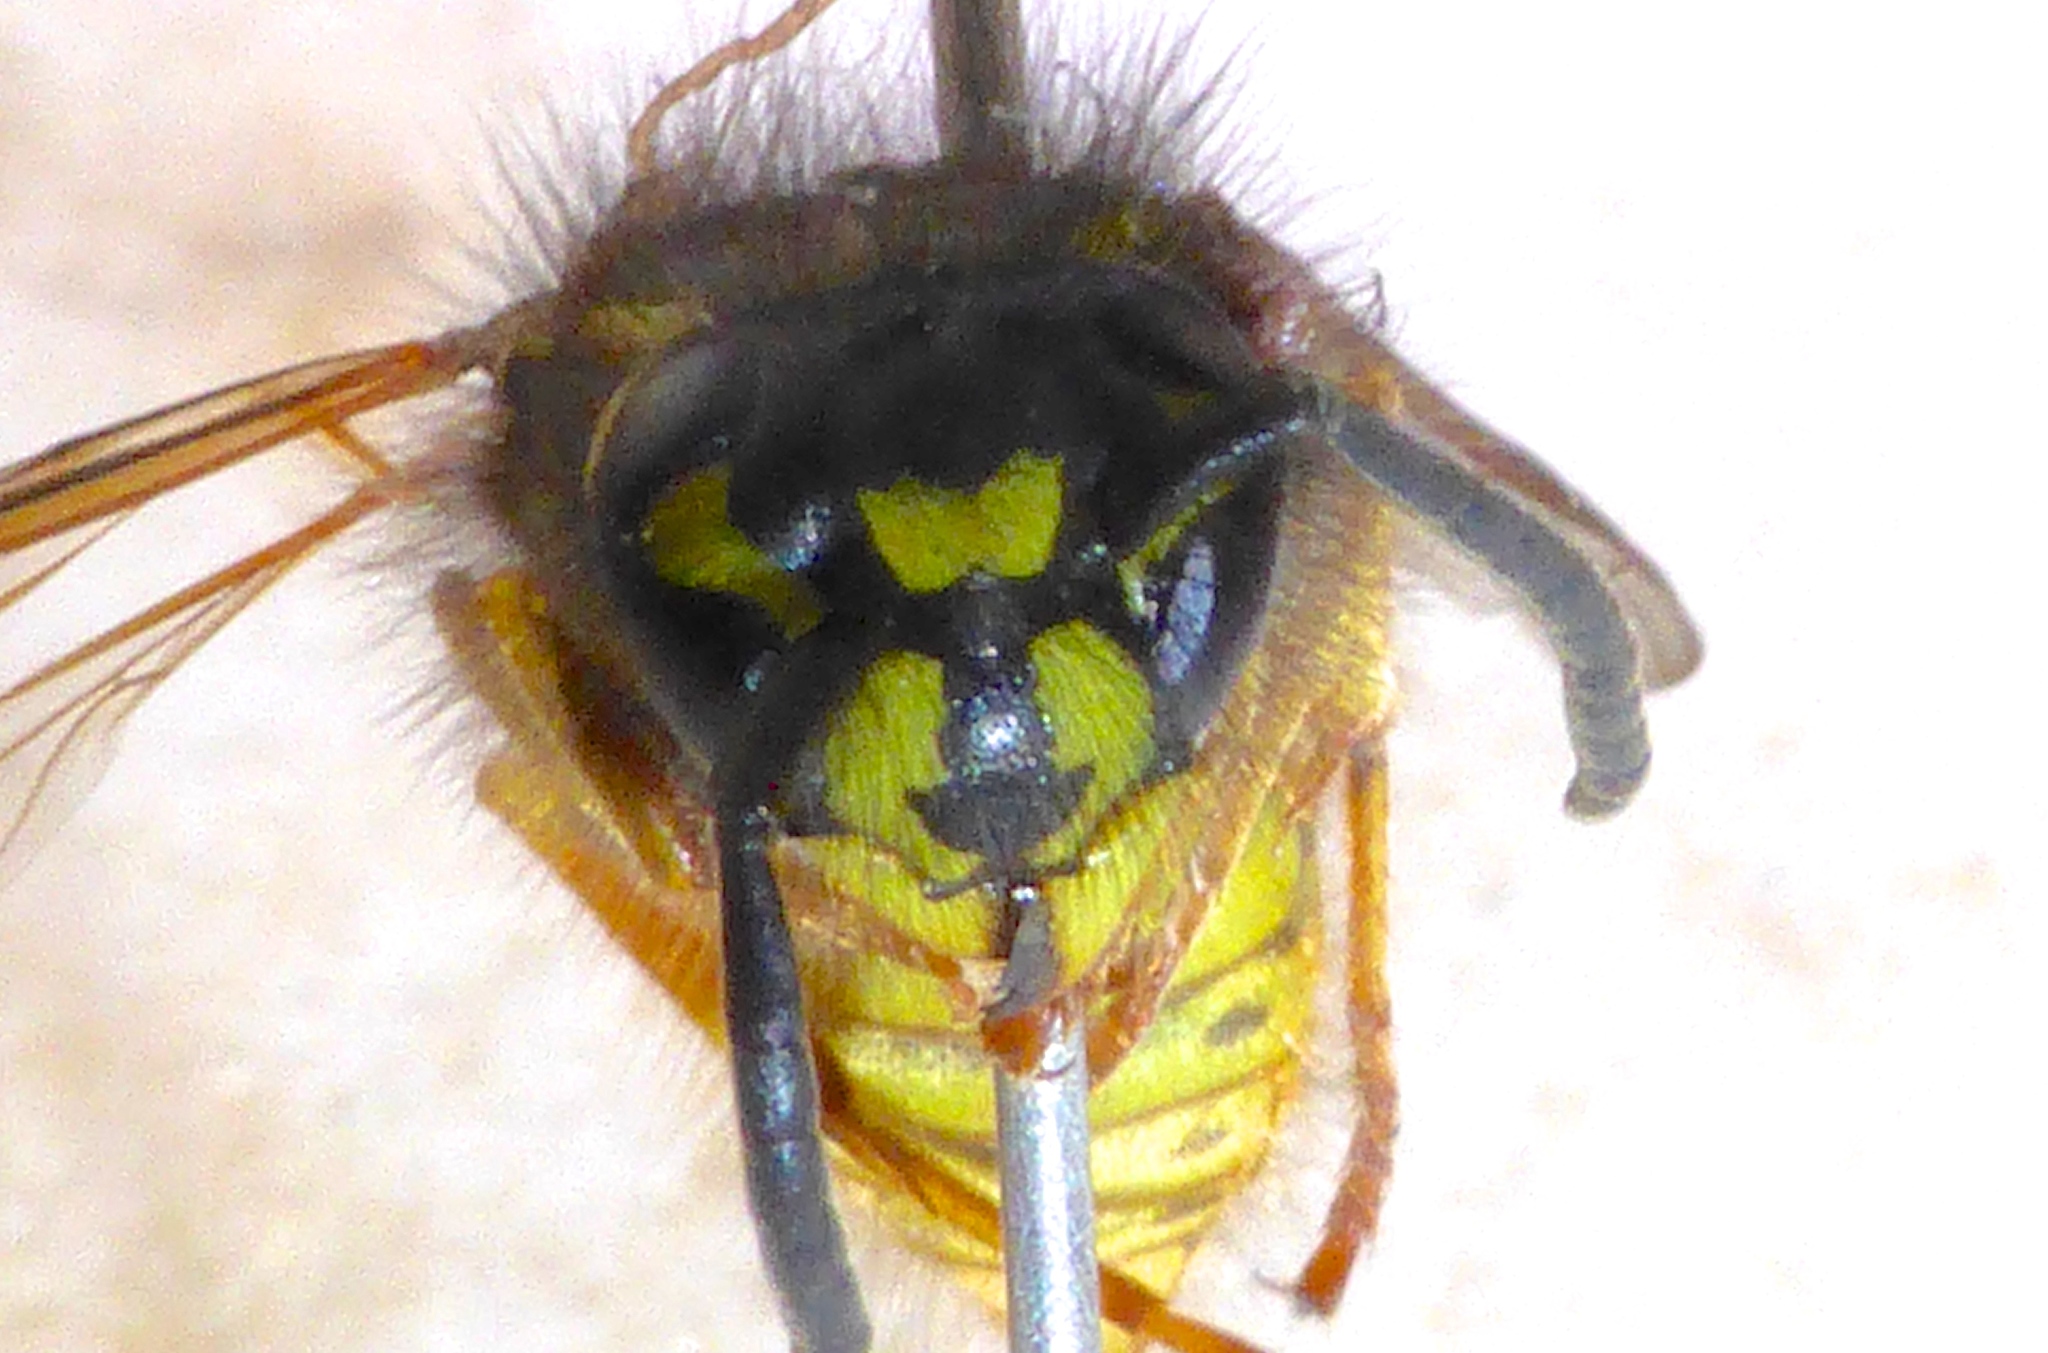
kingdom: Animalia
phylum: Arthropoda
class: Insecta
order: Hymenoptera
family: Vespidae
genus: Vespula
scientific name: Vespula vulgaris
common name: Common wasp
